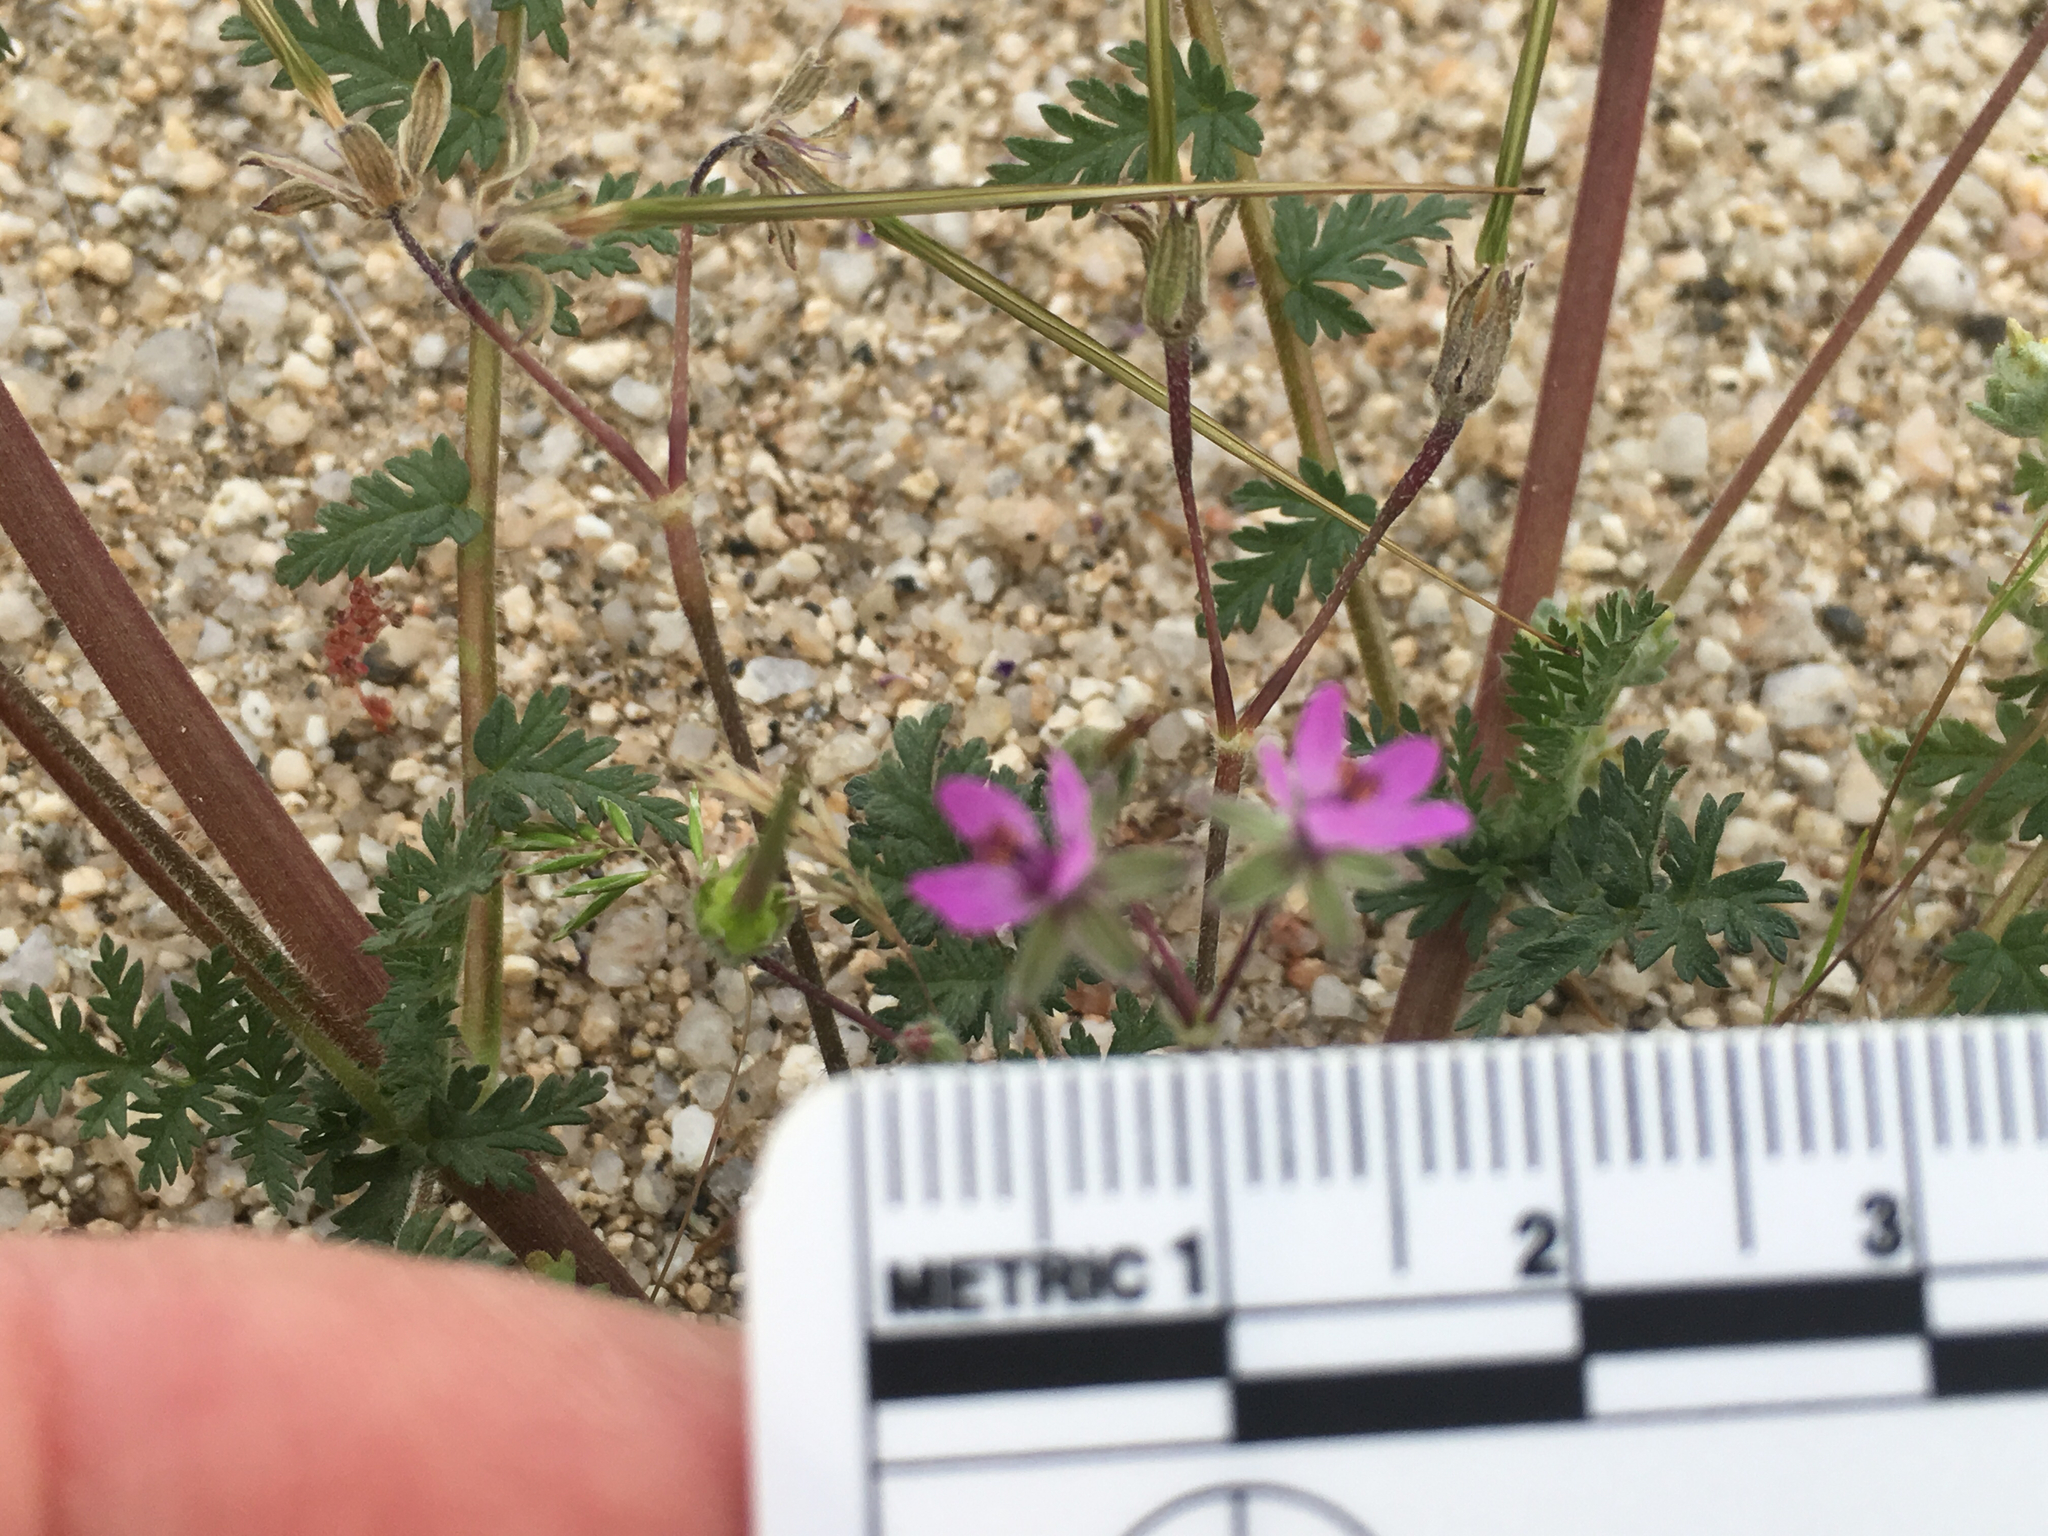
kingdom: Plantae
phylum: Tracheophyta
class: Magnoliopsida
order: Geraniales
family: Geraniaceae
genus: Erodium
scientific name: Erodium cicutarium
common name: Common stork's-bill
